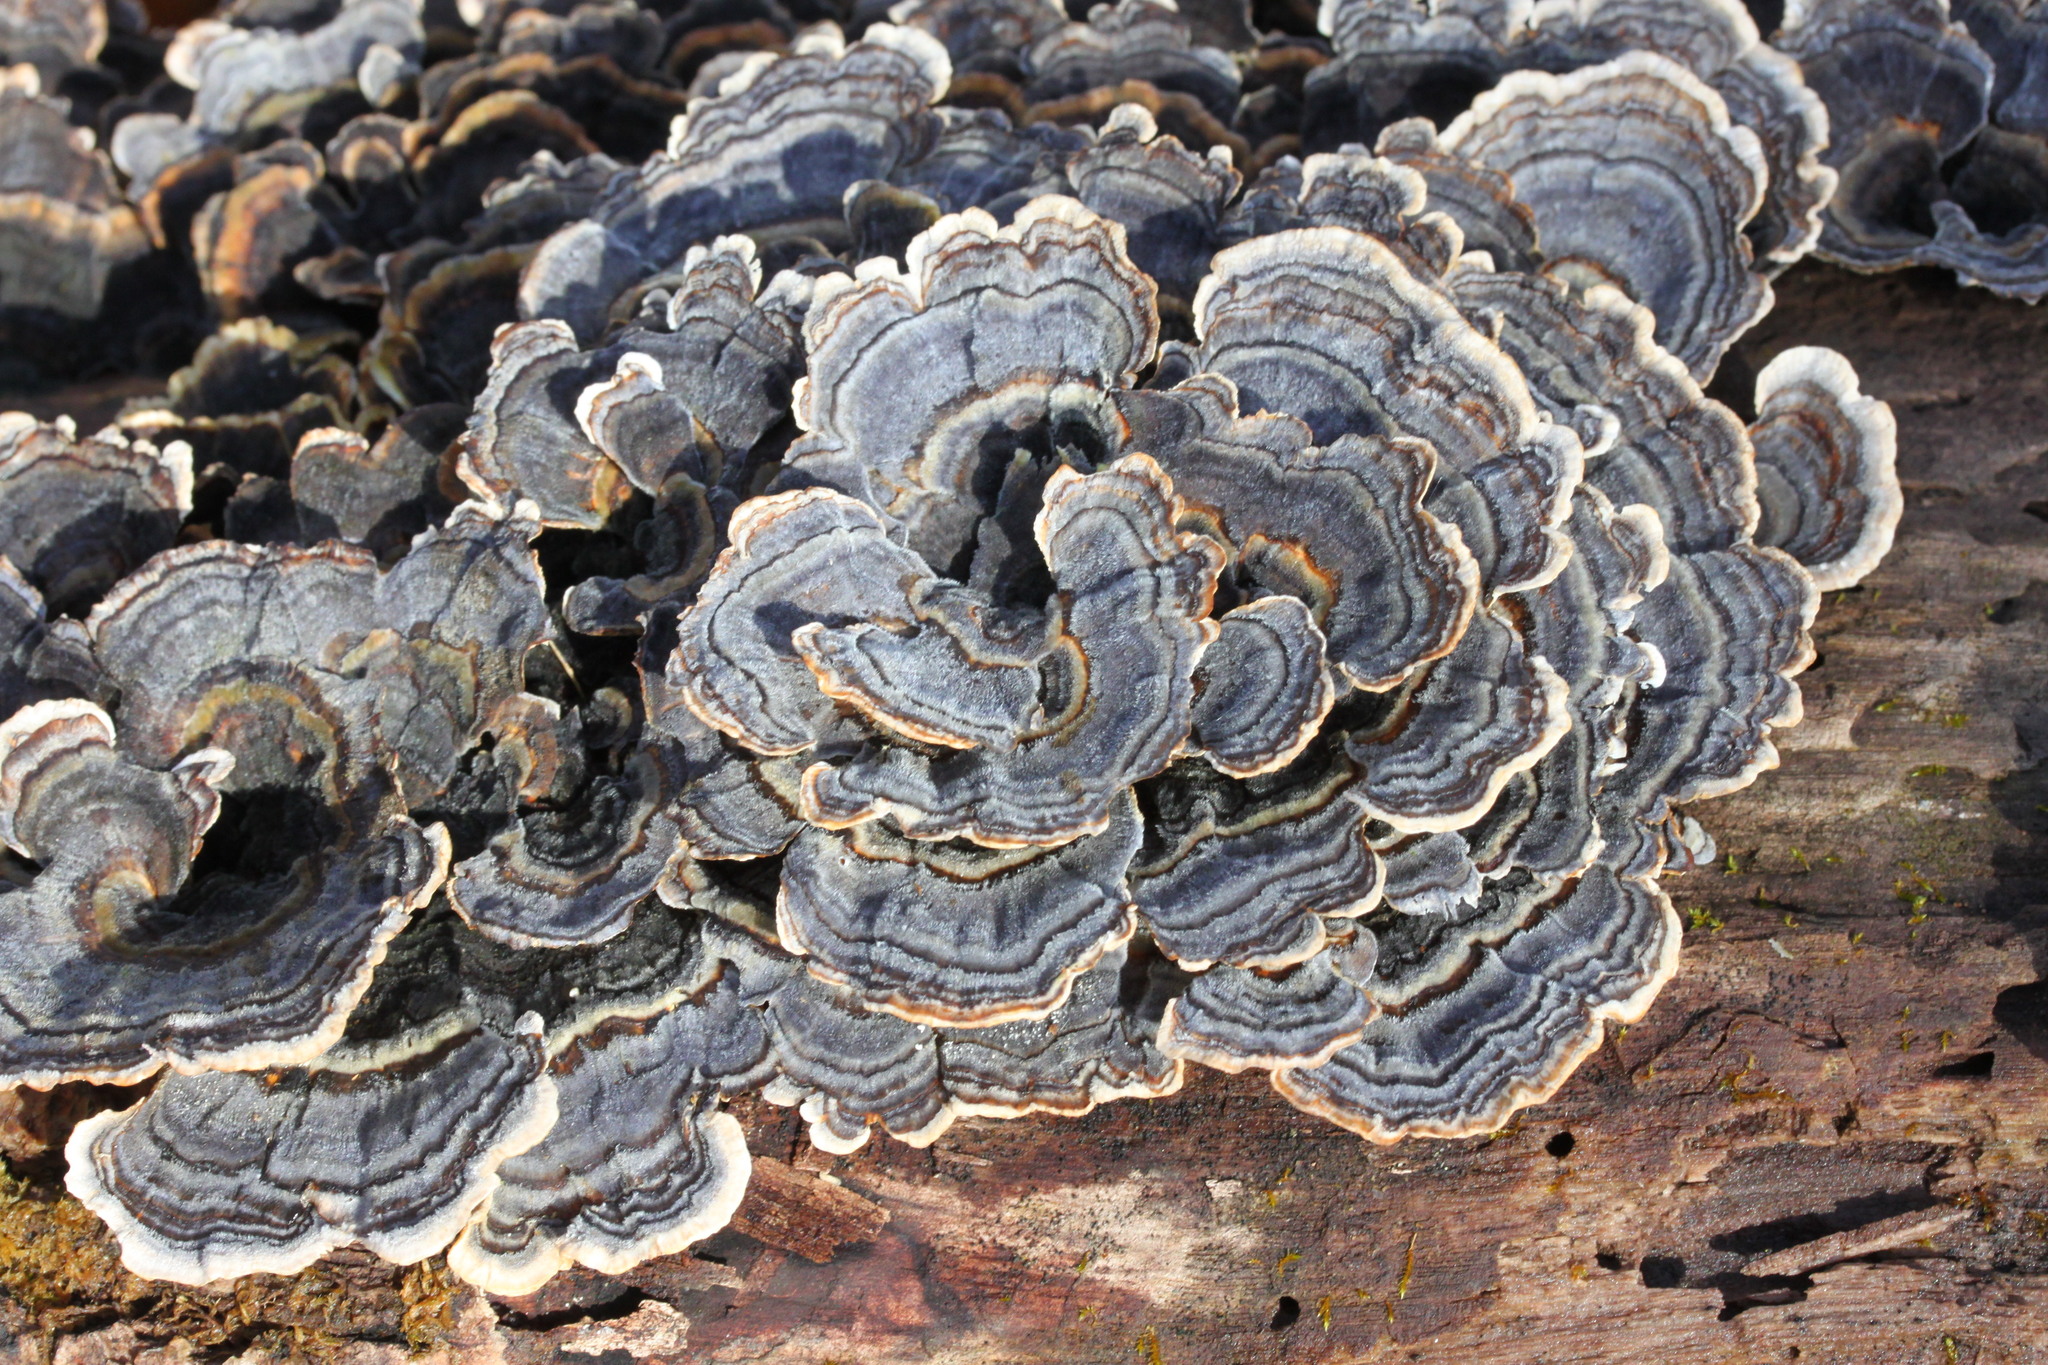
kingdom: Fungi
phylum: Basidiomycota
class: Agaricomycetes
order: Polyporales
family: Polyporaceae
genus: Trametes
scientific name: Trametes versicolor
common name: Turkeytail
